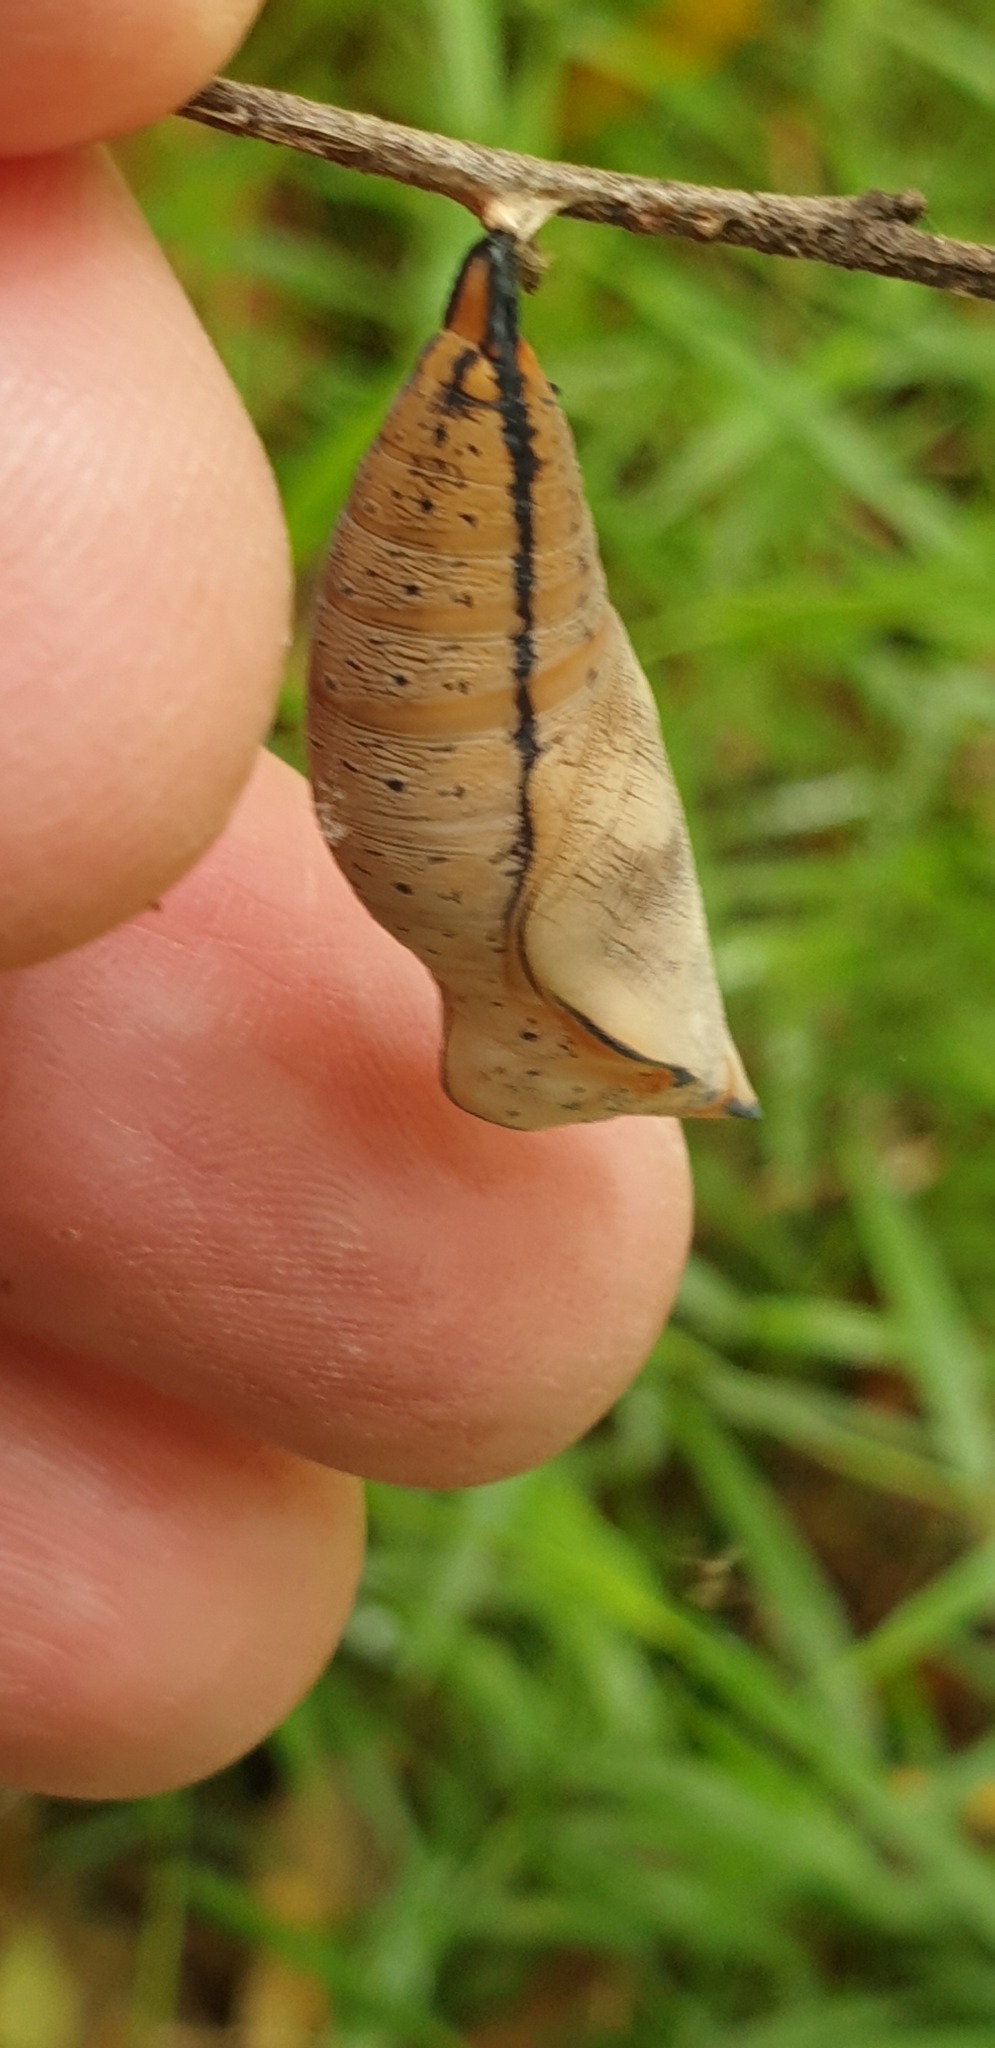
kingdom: Animalia
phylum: Arthropoda
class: Insecta
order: Lepidoptera
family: Nymphalidae
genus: Doleschallia
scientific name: Doleschallia bisaltide
